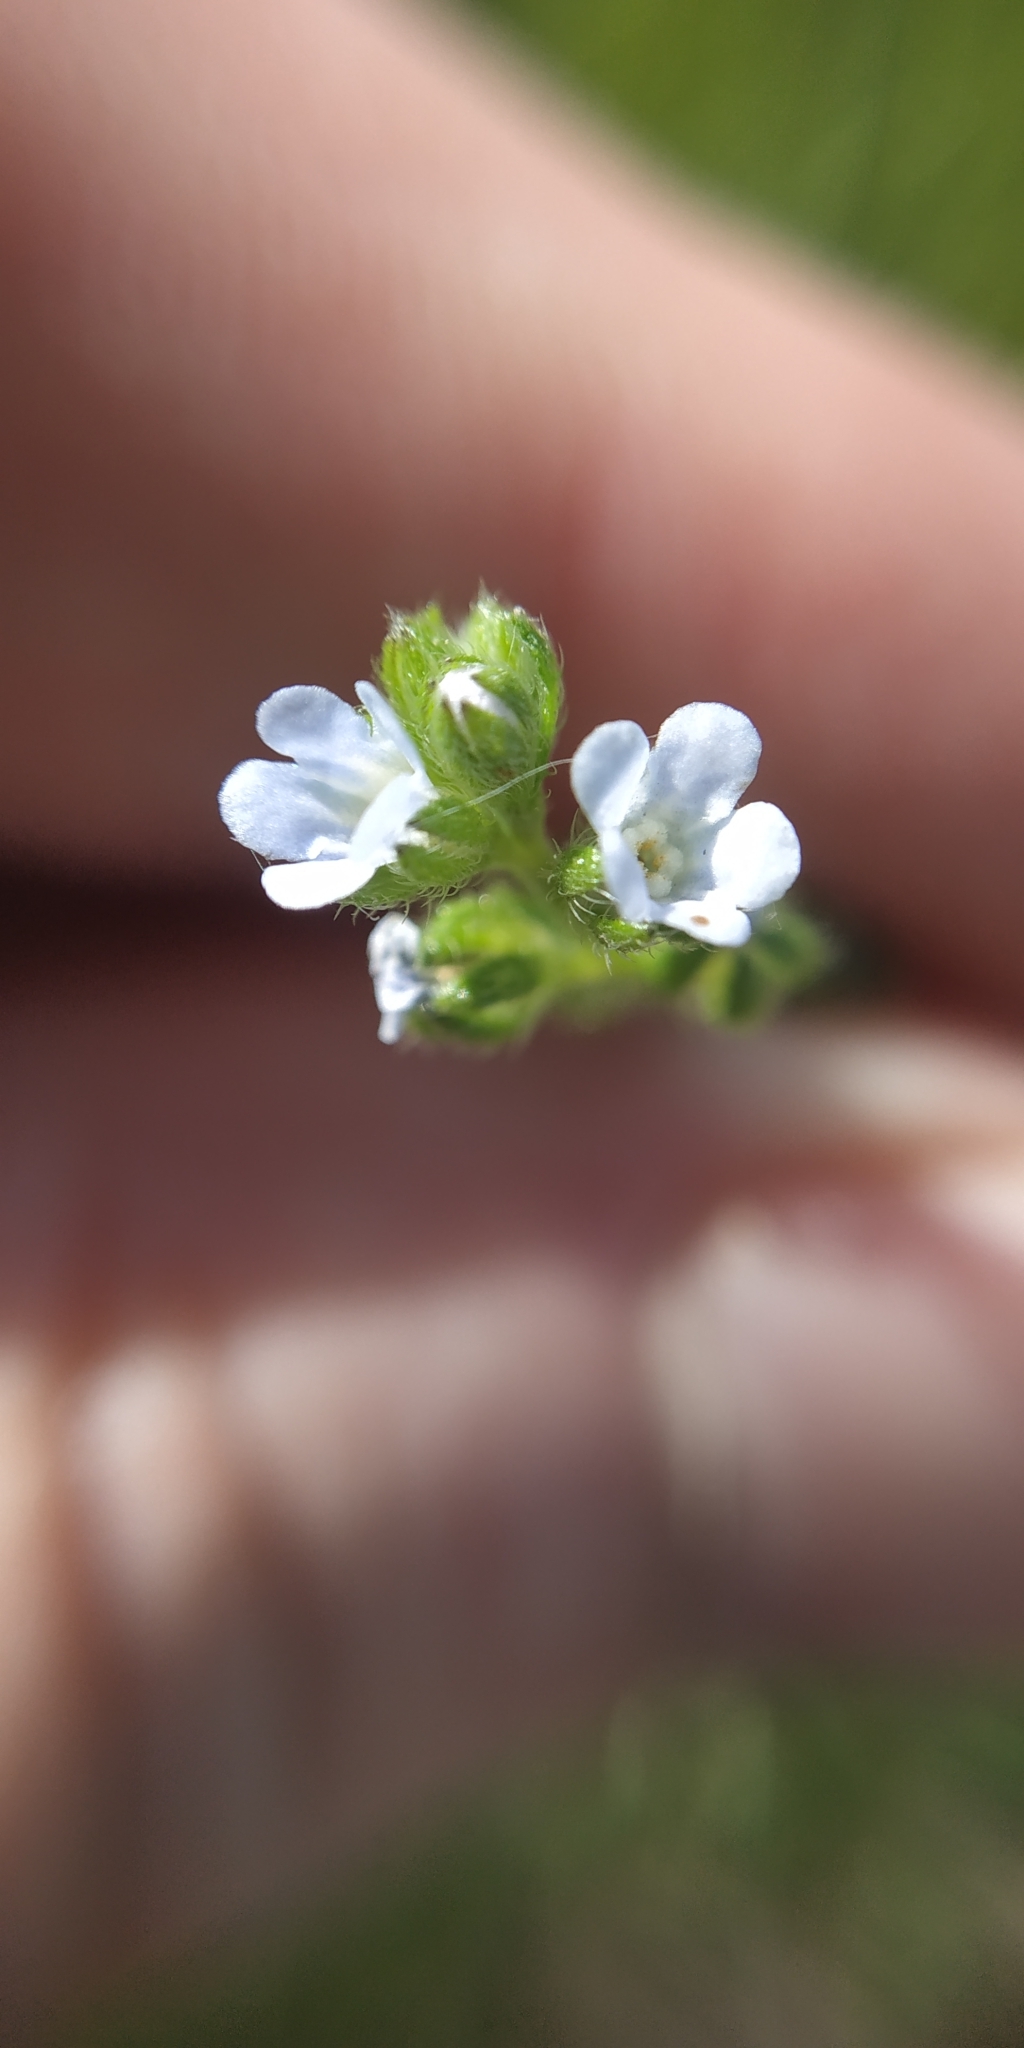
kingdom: Plantae
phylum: Tracheophyta
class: Magnoliopsida
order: Boraginales
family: Boraginaceae
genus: Lappula
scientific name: Lappula squarrosa
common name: European stickseed
